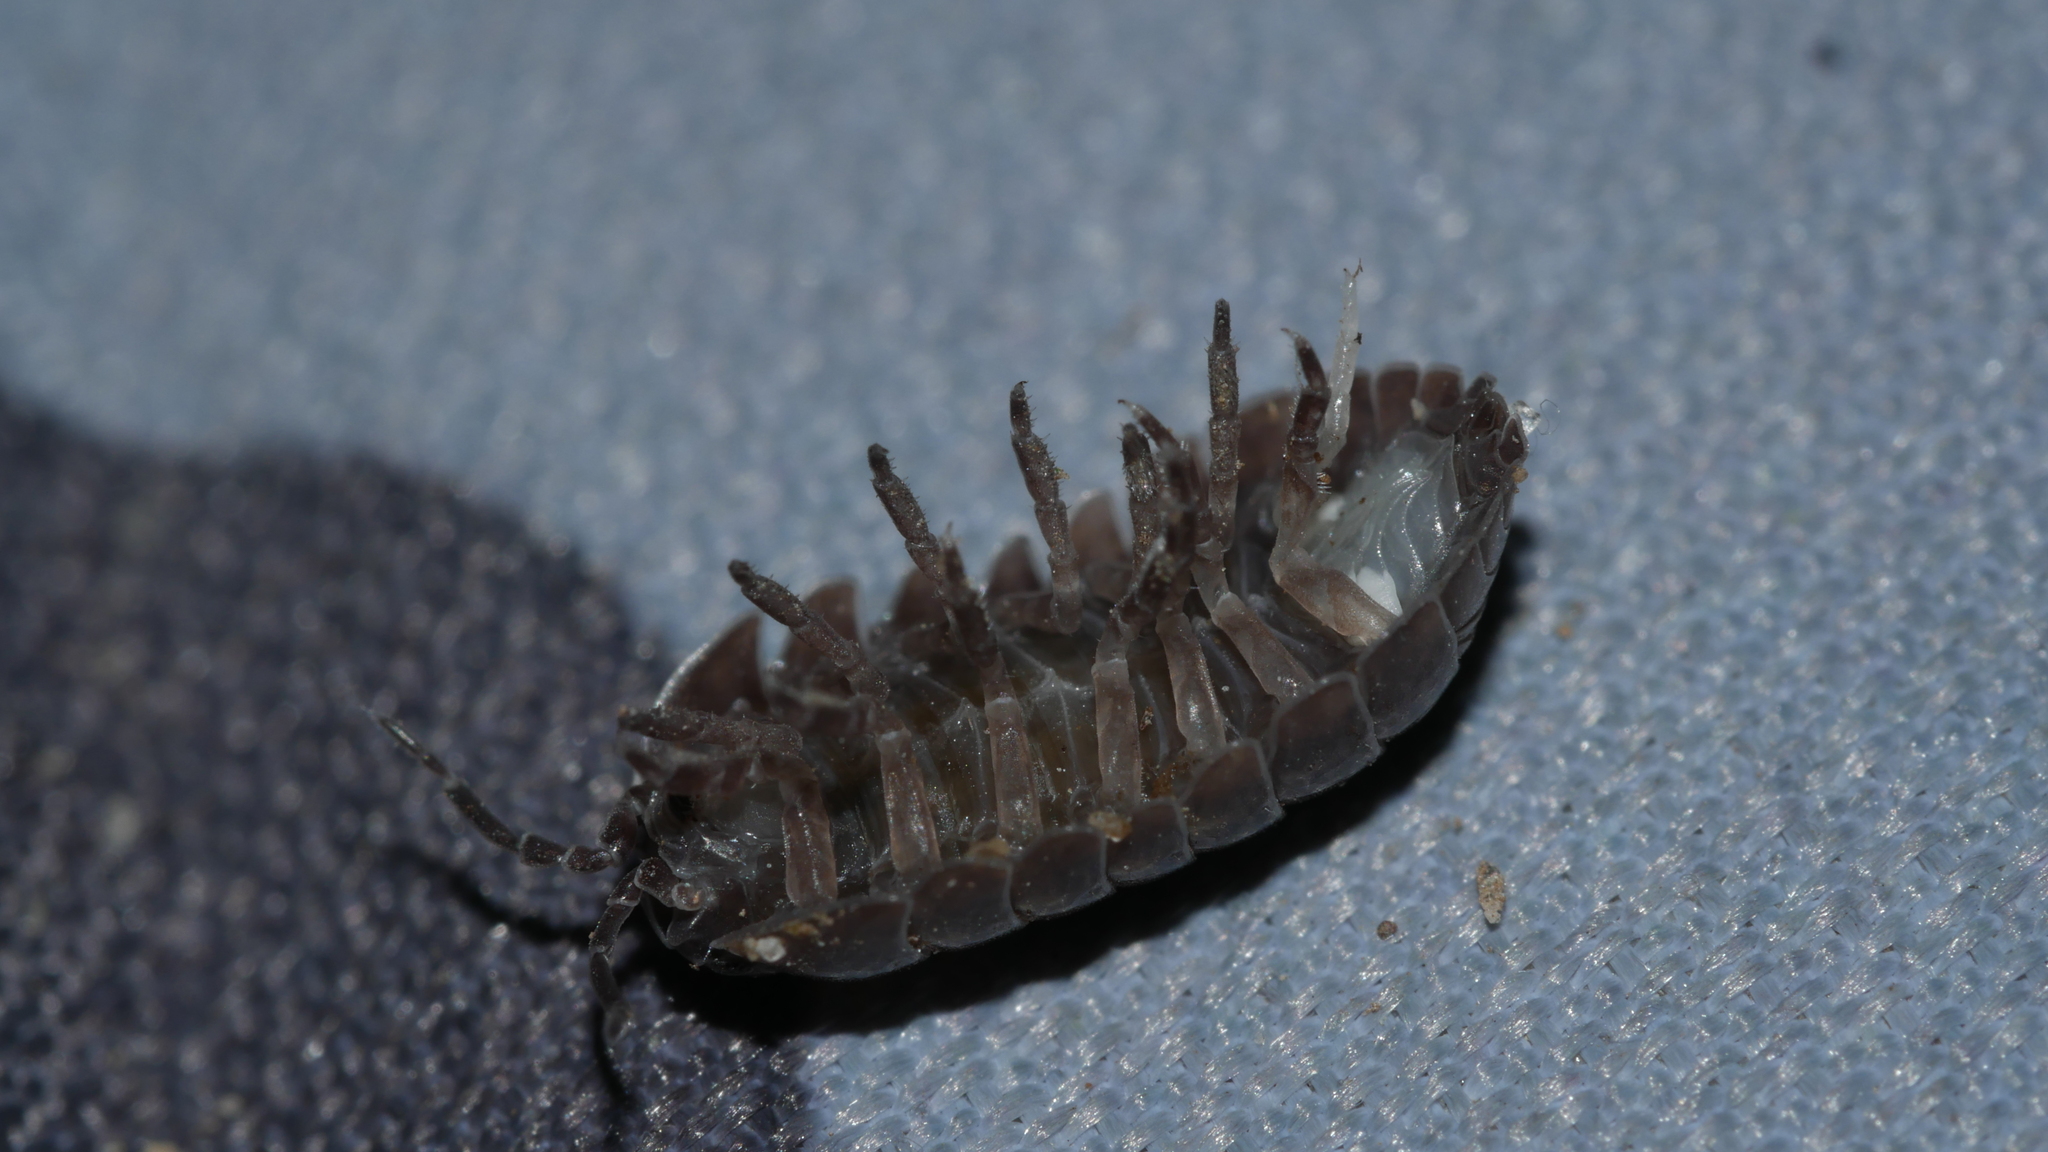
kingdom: Animalia
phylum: Arthropoda
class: Malacostraca
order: Isopoda
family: Armadillidiidae
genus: Armadillidium
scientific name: Armadillidium vulgare
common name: Common pill woodlouse
